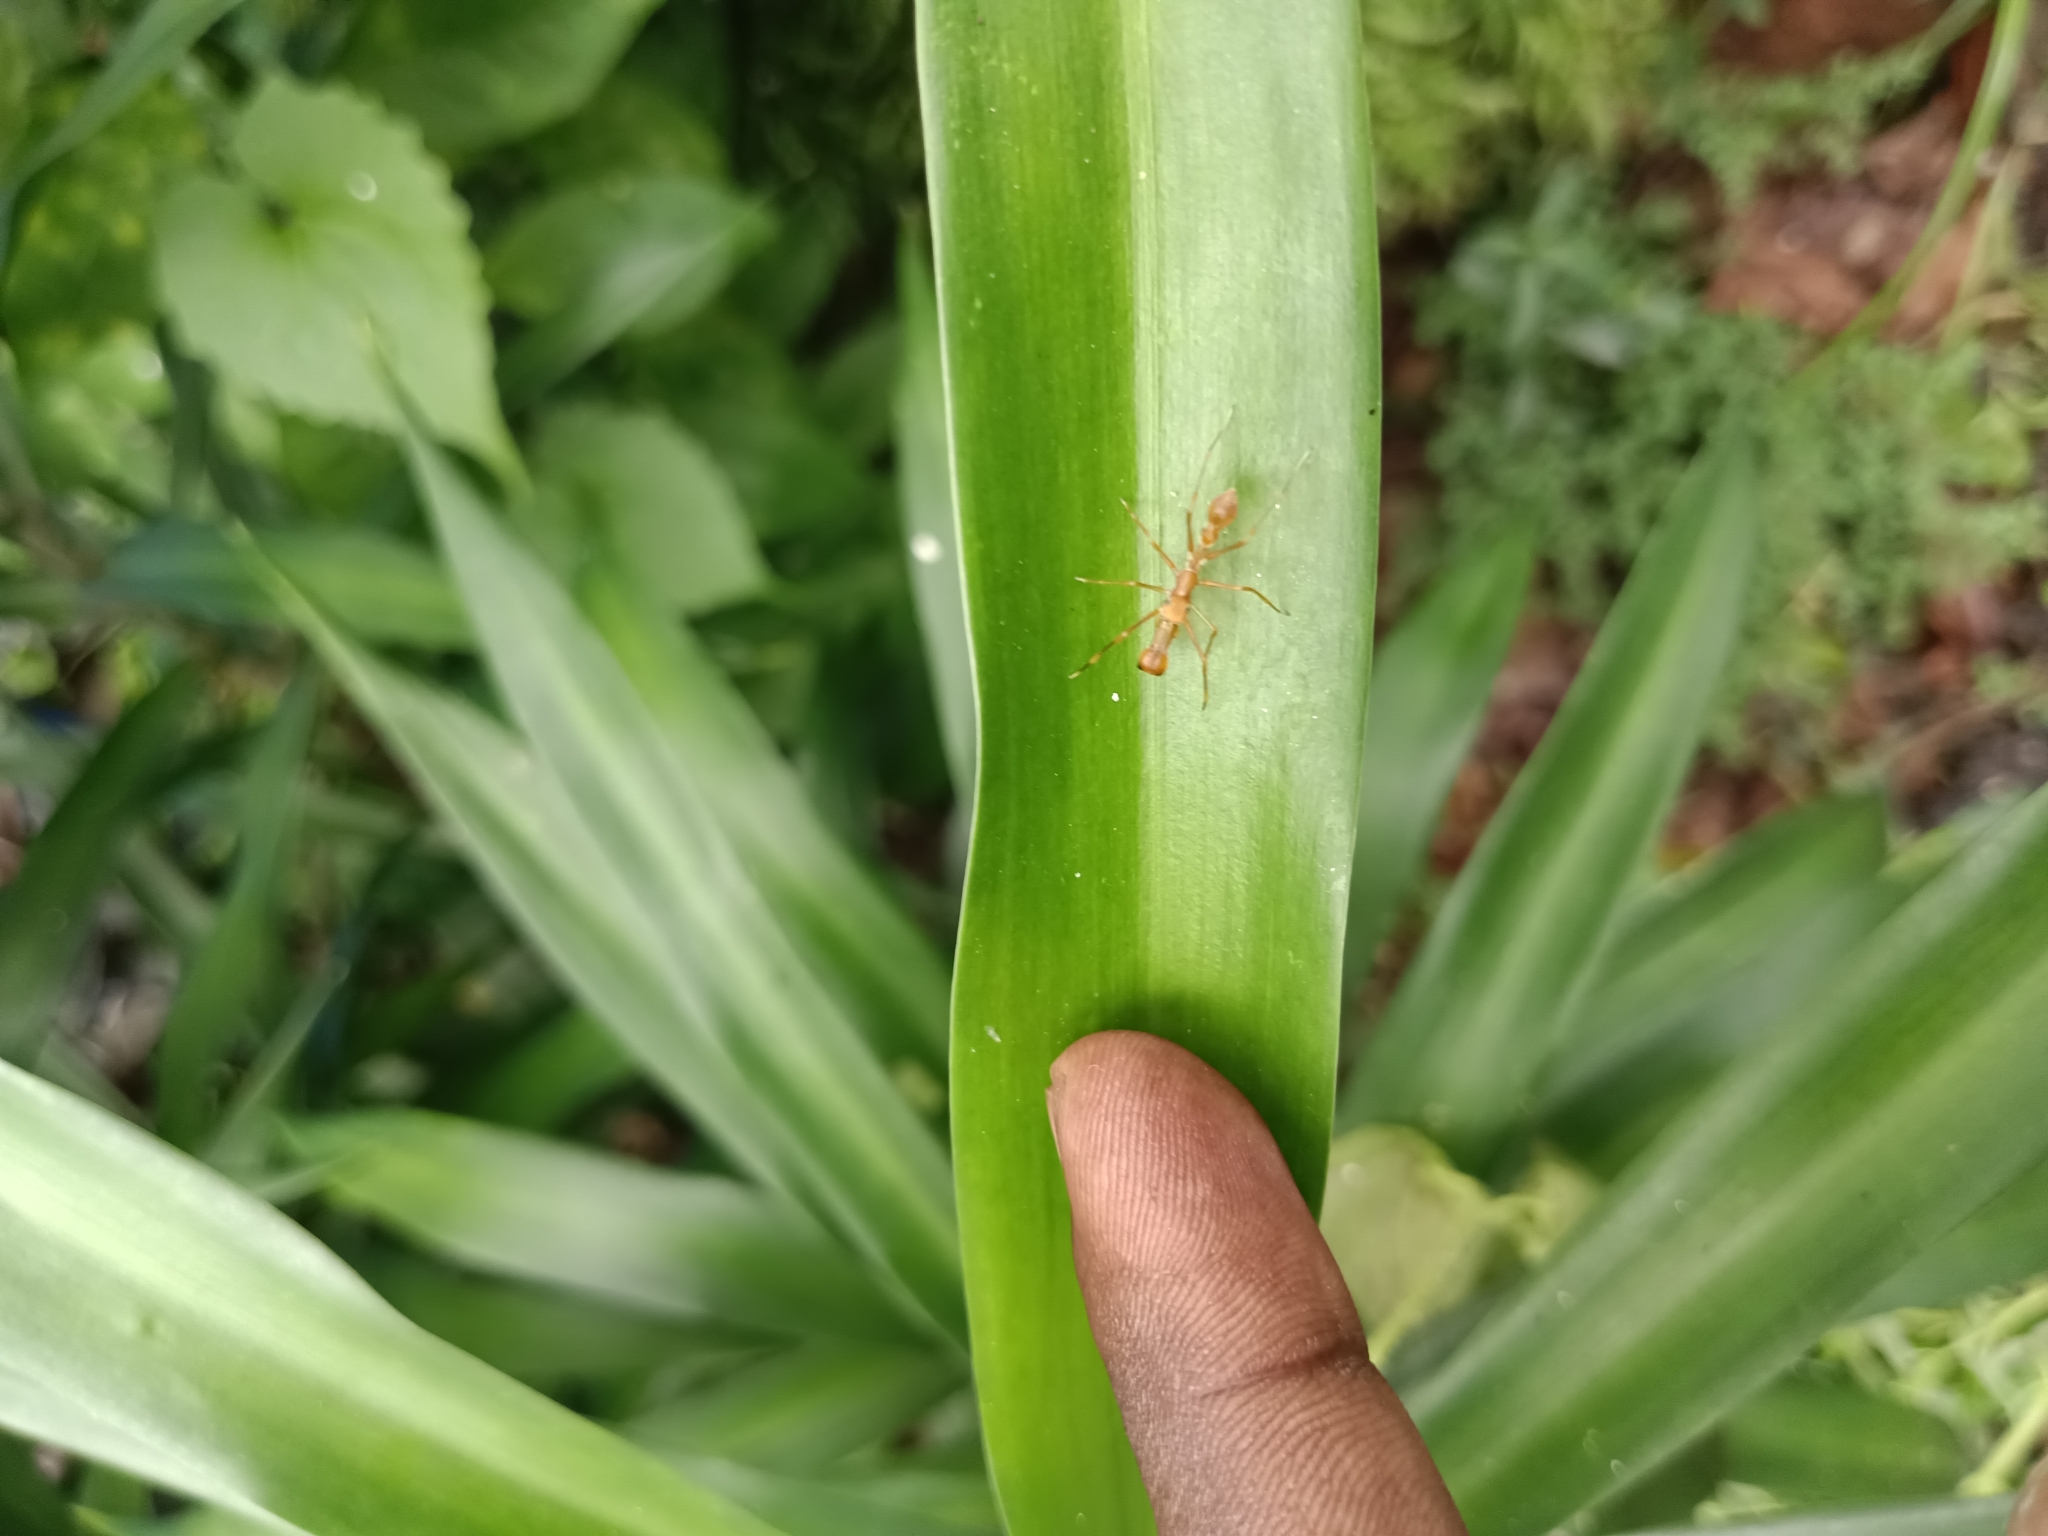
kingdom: Animalia
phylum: Arthropoda
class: Arachnida
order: Araneae
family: Salticidae
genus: Myrmaplata
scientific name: Myrmaplata plataleoides
